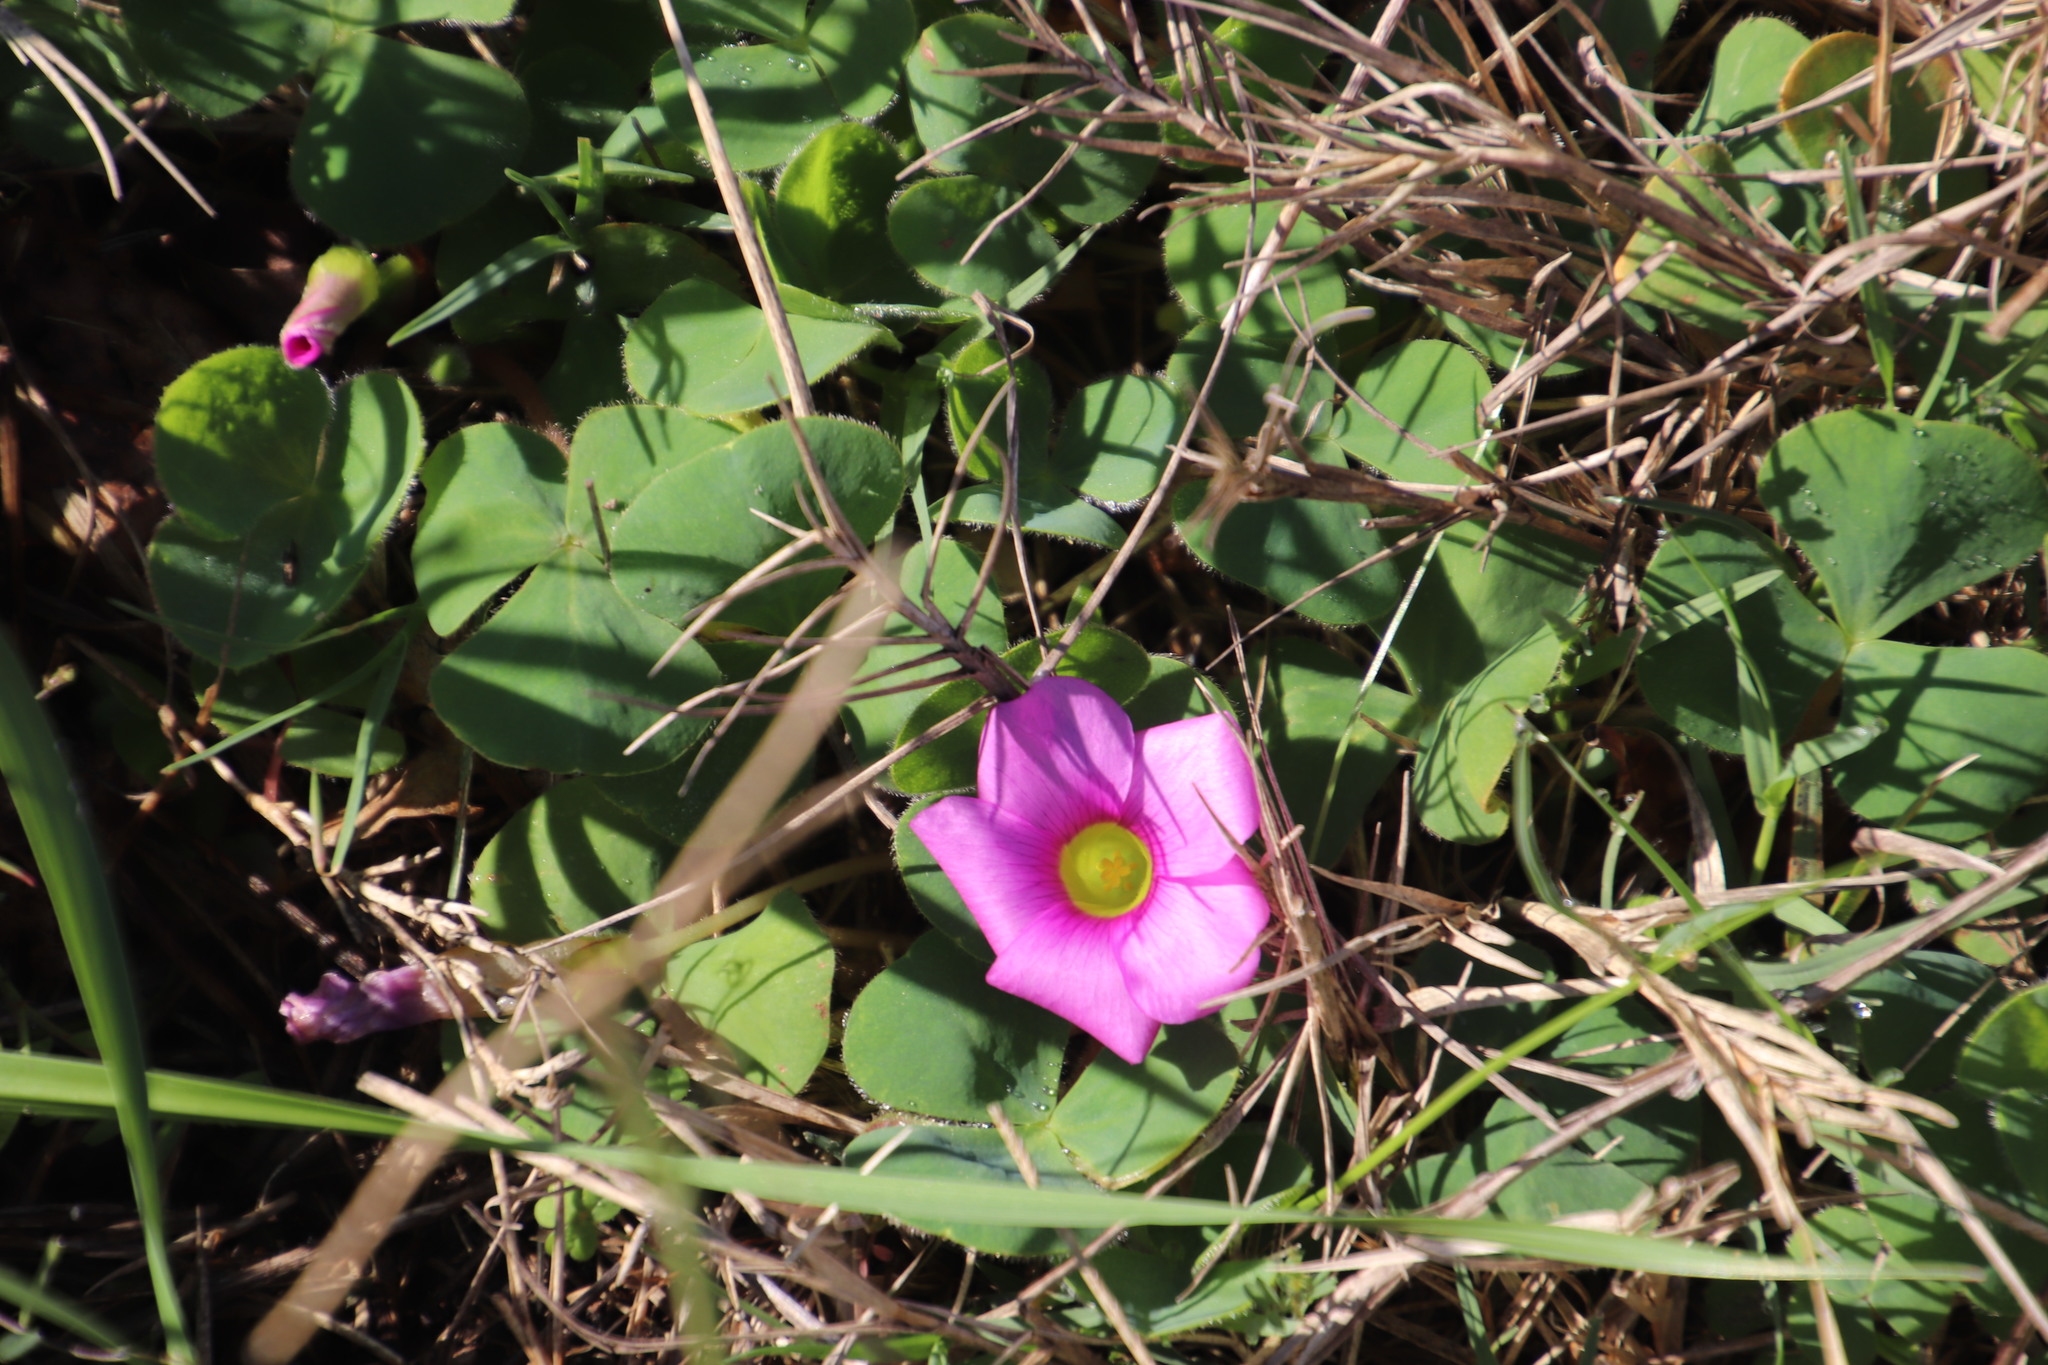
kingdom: Plantae
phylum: Tracheophyta
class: Magnoliopsida
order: Oxalidales
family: Oxalidaceae
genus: Oxalis
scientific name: Oxalis purpurea
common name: Purple woodsorrel
